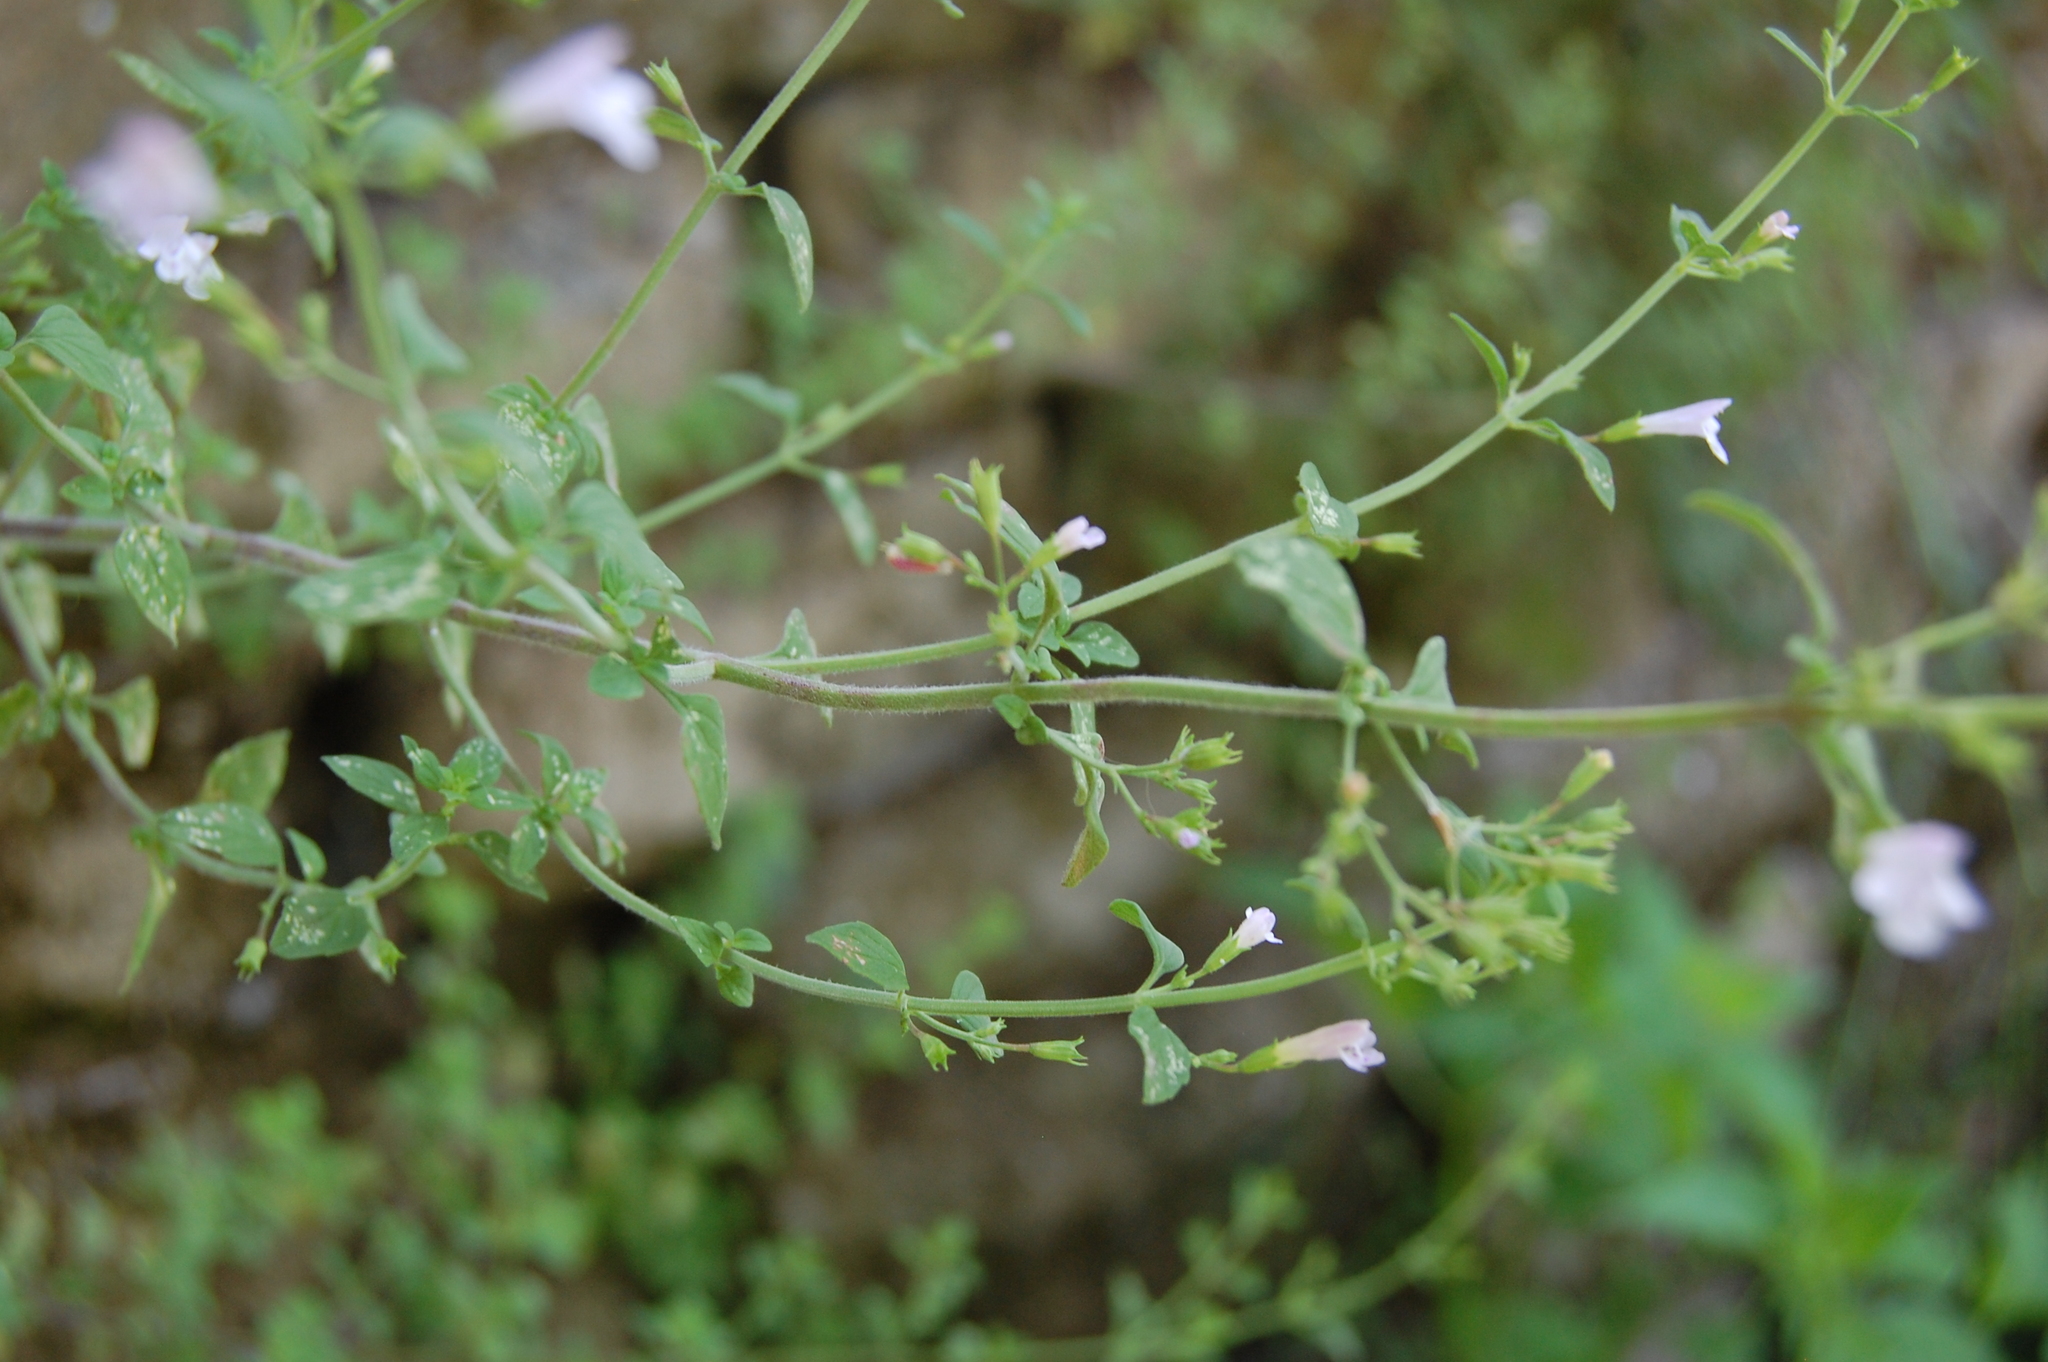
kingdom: Plantae
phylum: Tracheophyta
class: Magnoliopsida
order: Lamiales
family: Lamiaceae
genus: Clinopodium
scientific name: Clinopodium nepeta
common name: Lesser calamint
